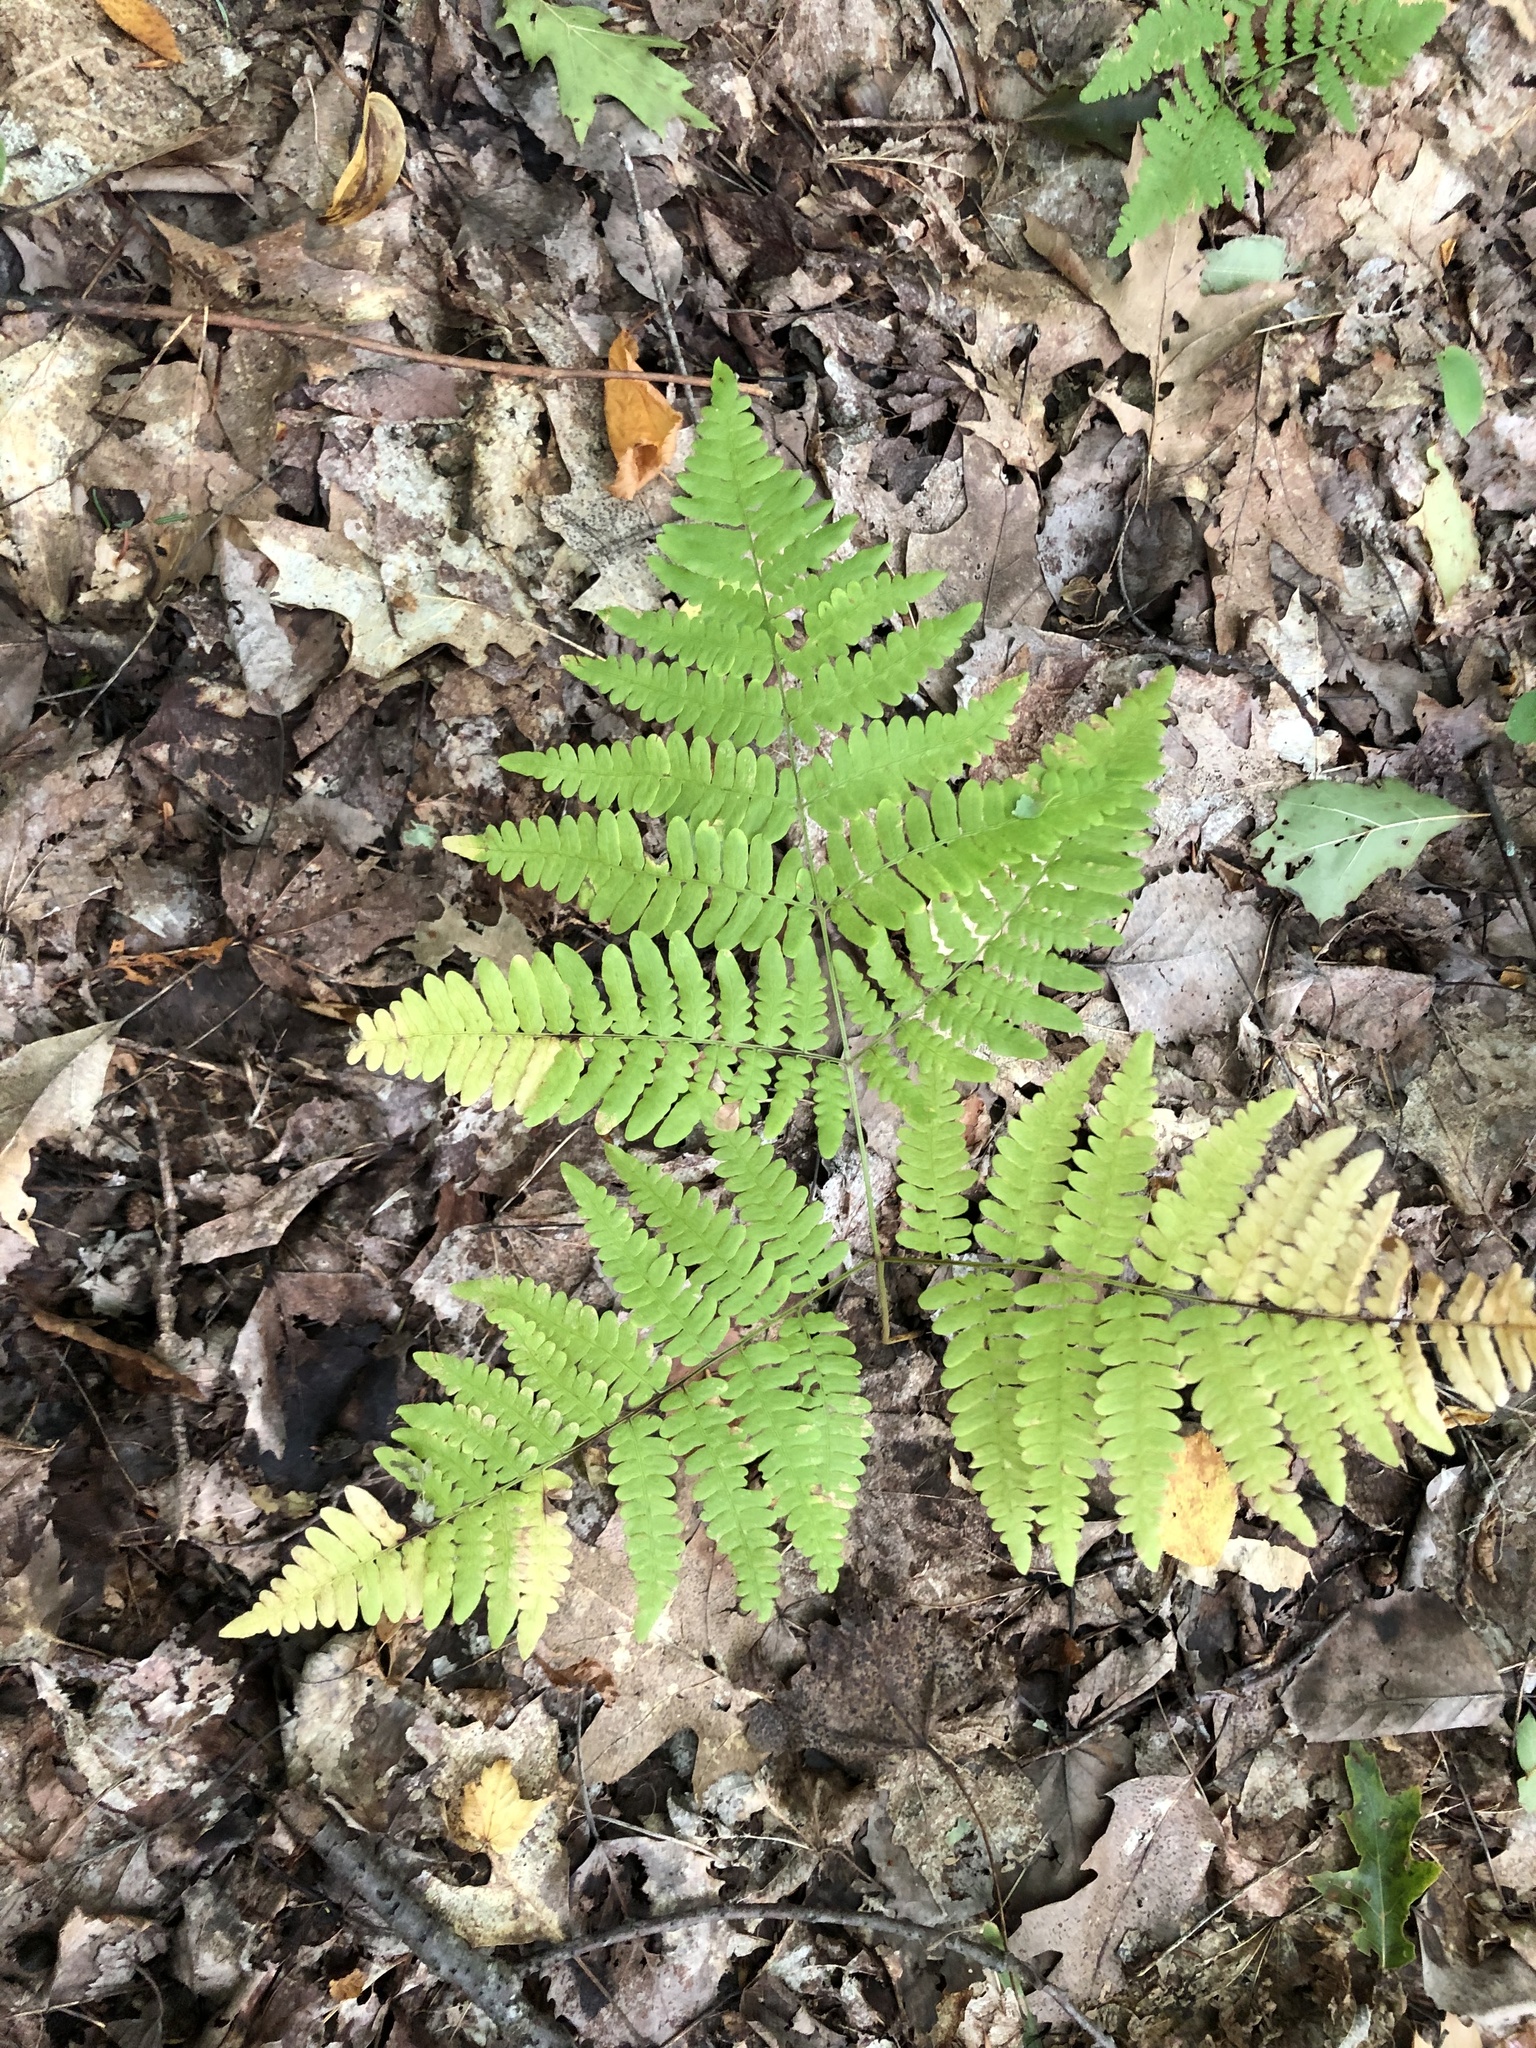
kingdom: Plantae
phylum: Tracheophyta
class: Polypodiopsida
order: Polypodiales
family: Dennstaedtiaceae
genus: Pteridium
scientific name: Pteridium aquilinum
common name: Bracken
